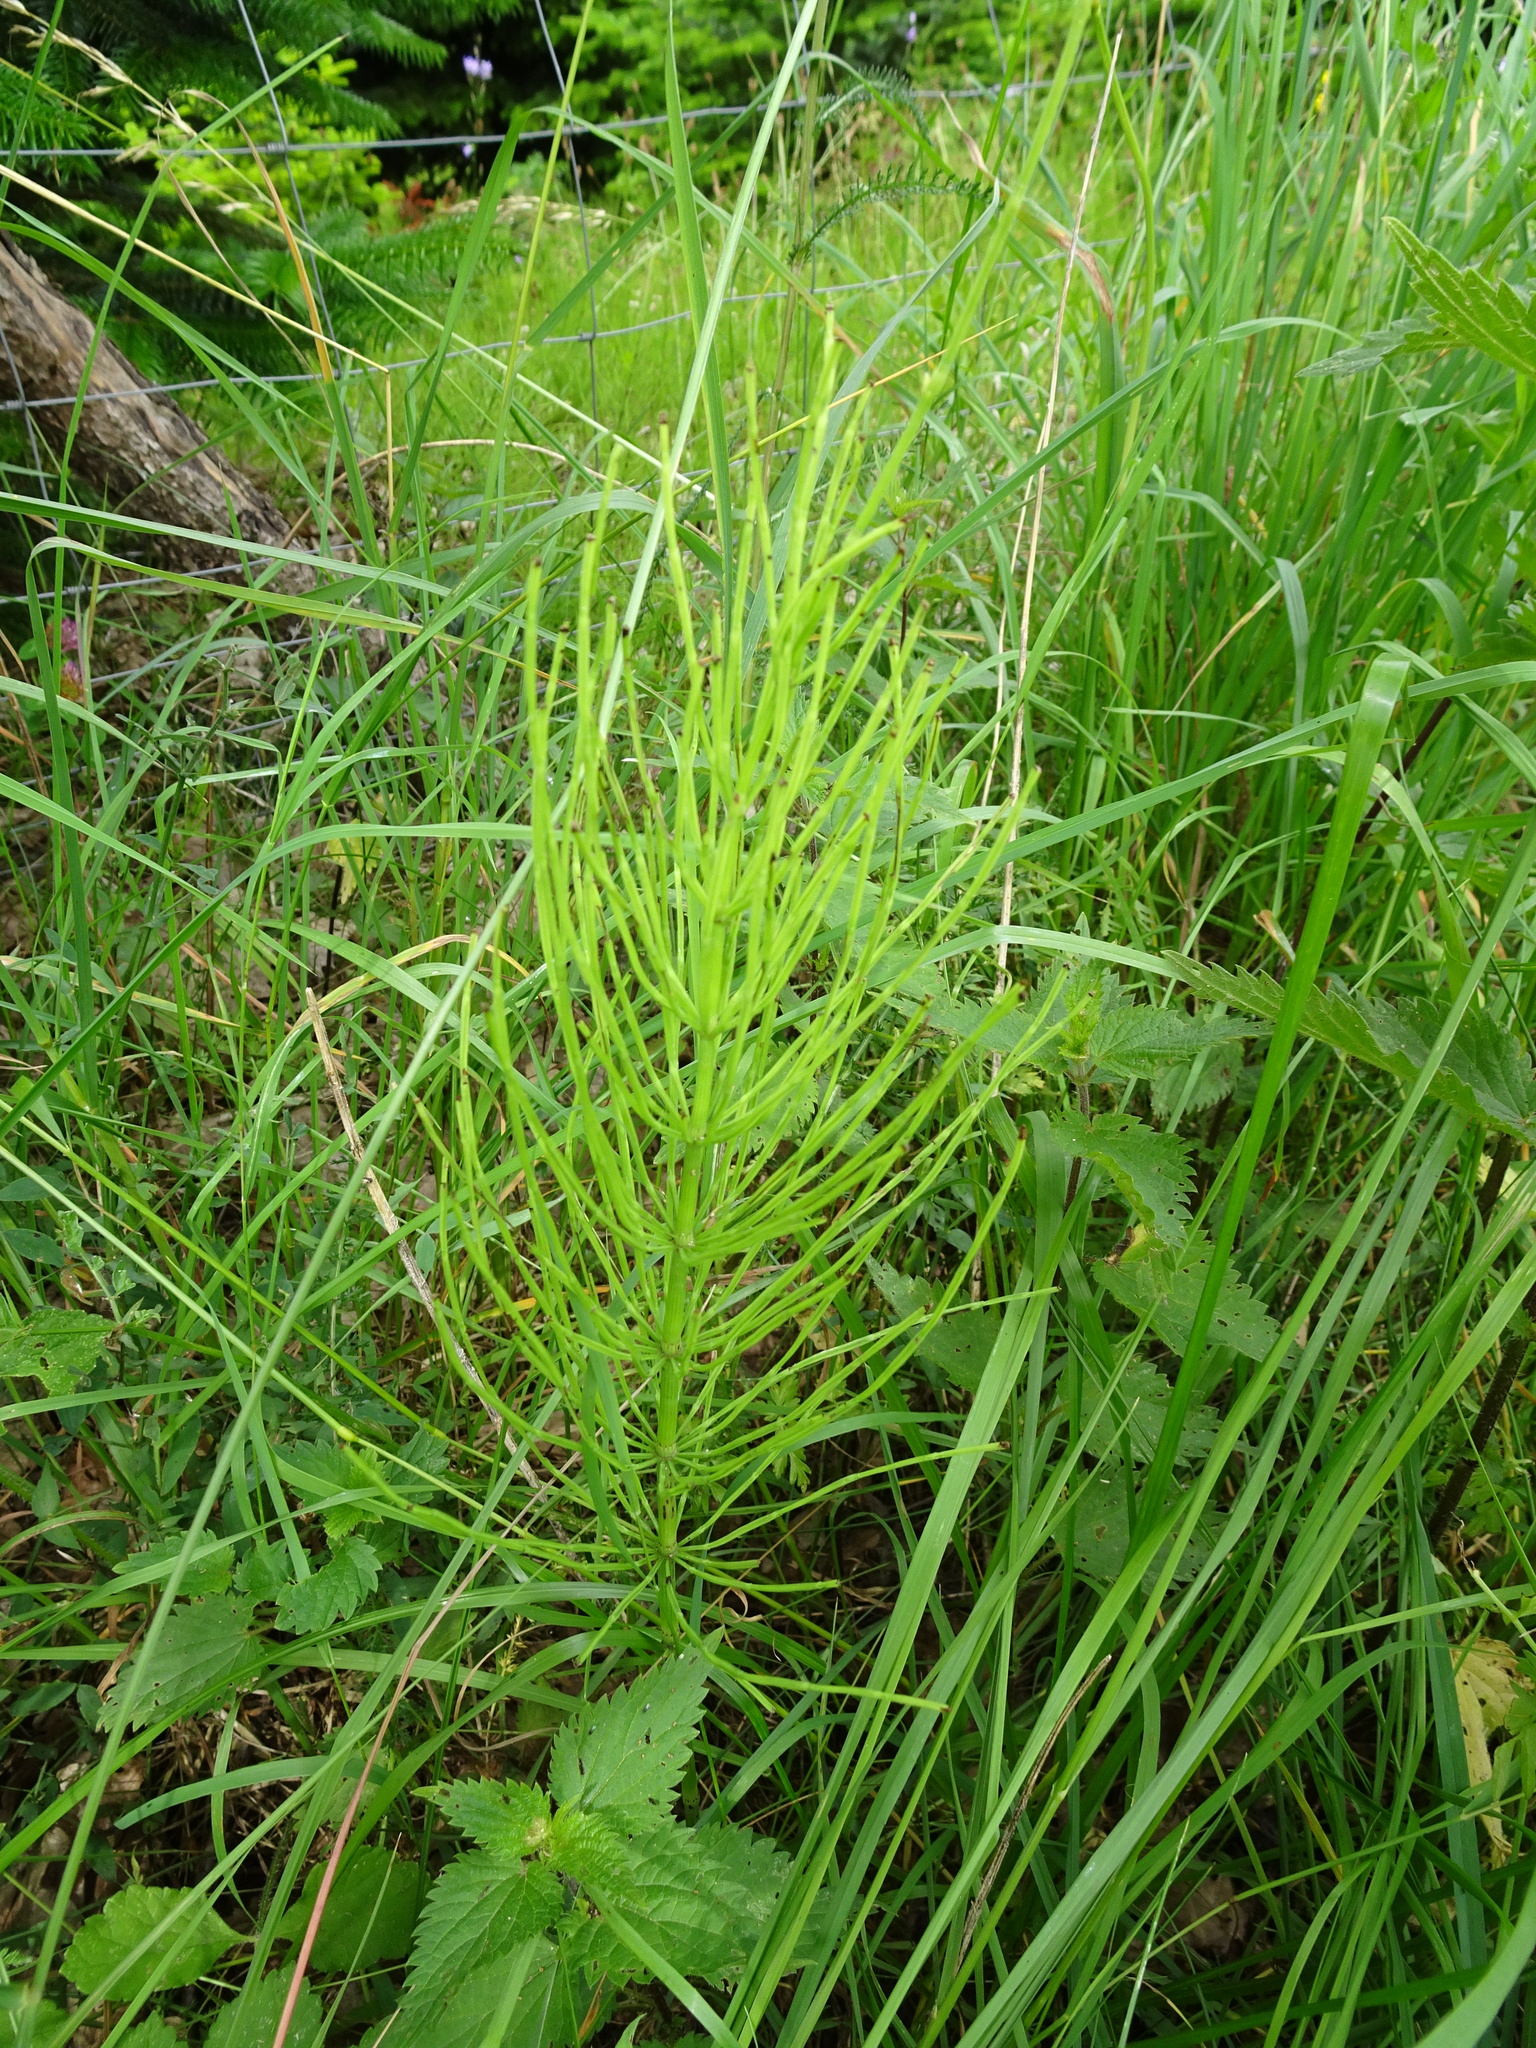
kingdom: Plantae
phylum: Tracheophyta
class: Polypodiopsida
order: Equisetales
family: Equisetaceae
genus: Equisetum
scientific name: Equisetum arvense
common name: Field horsetail
